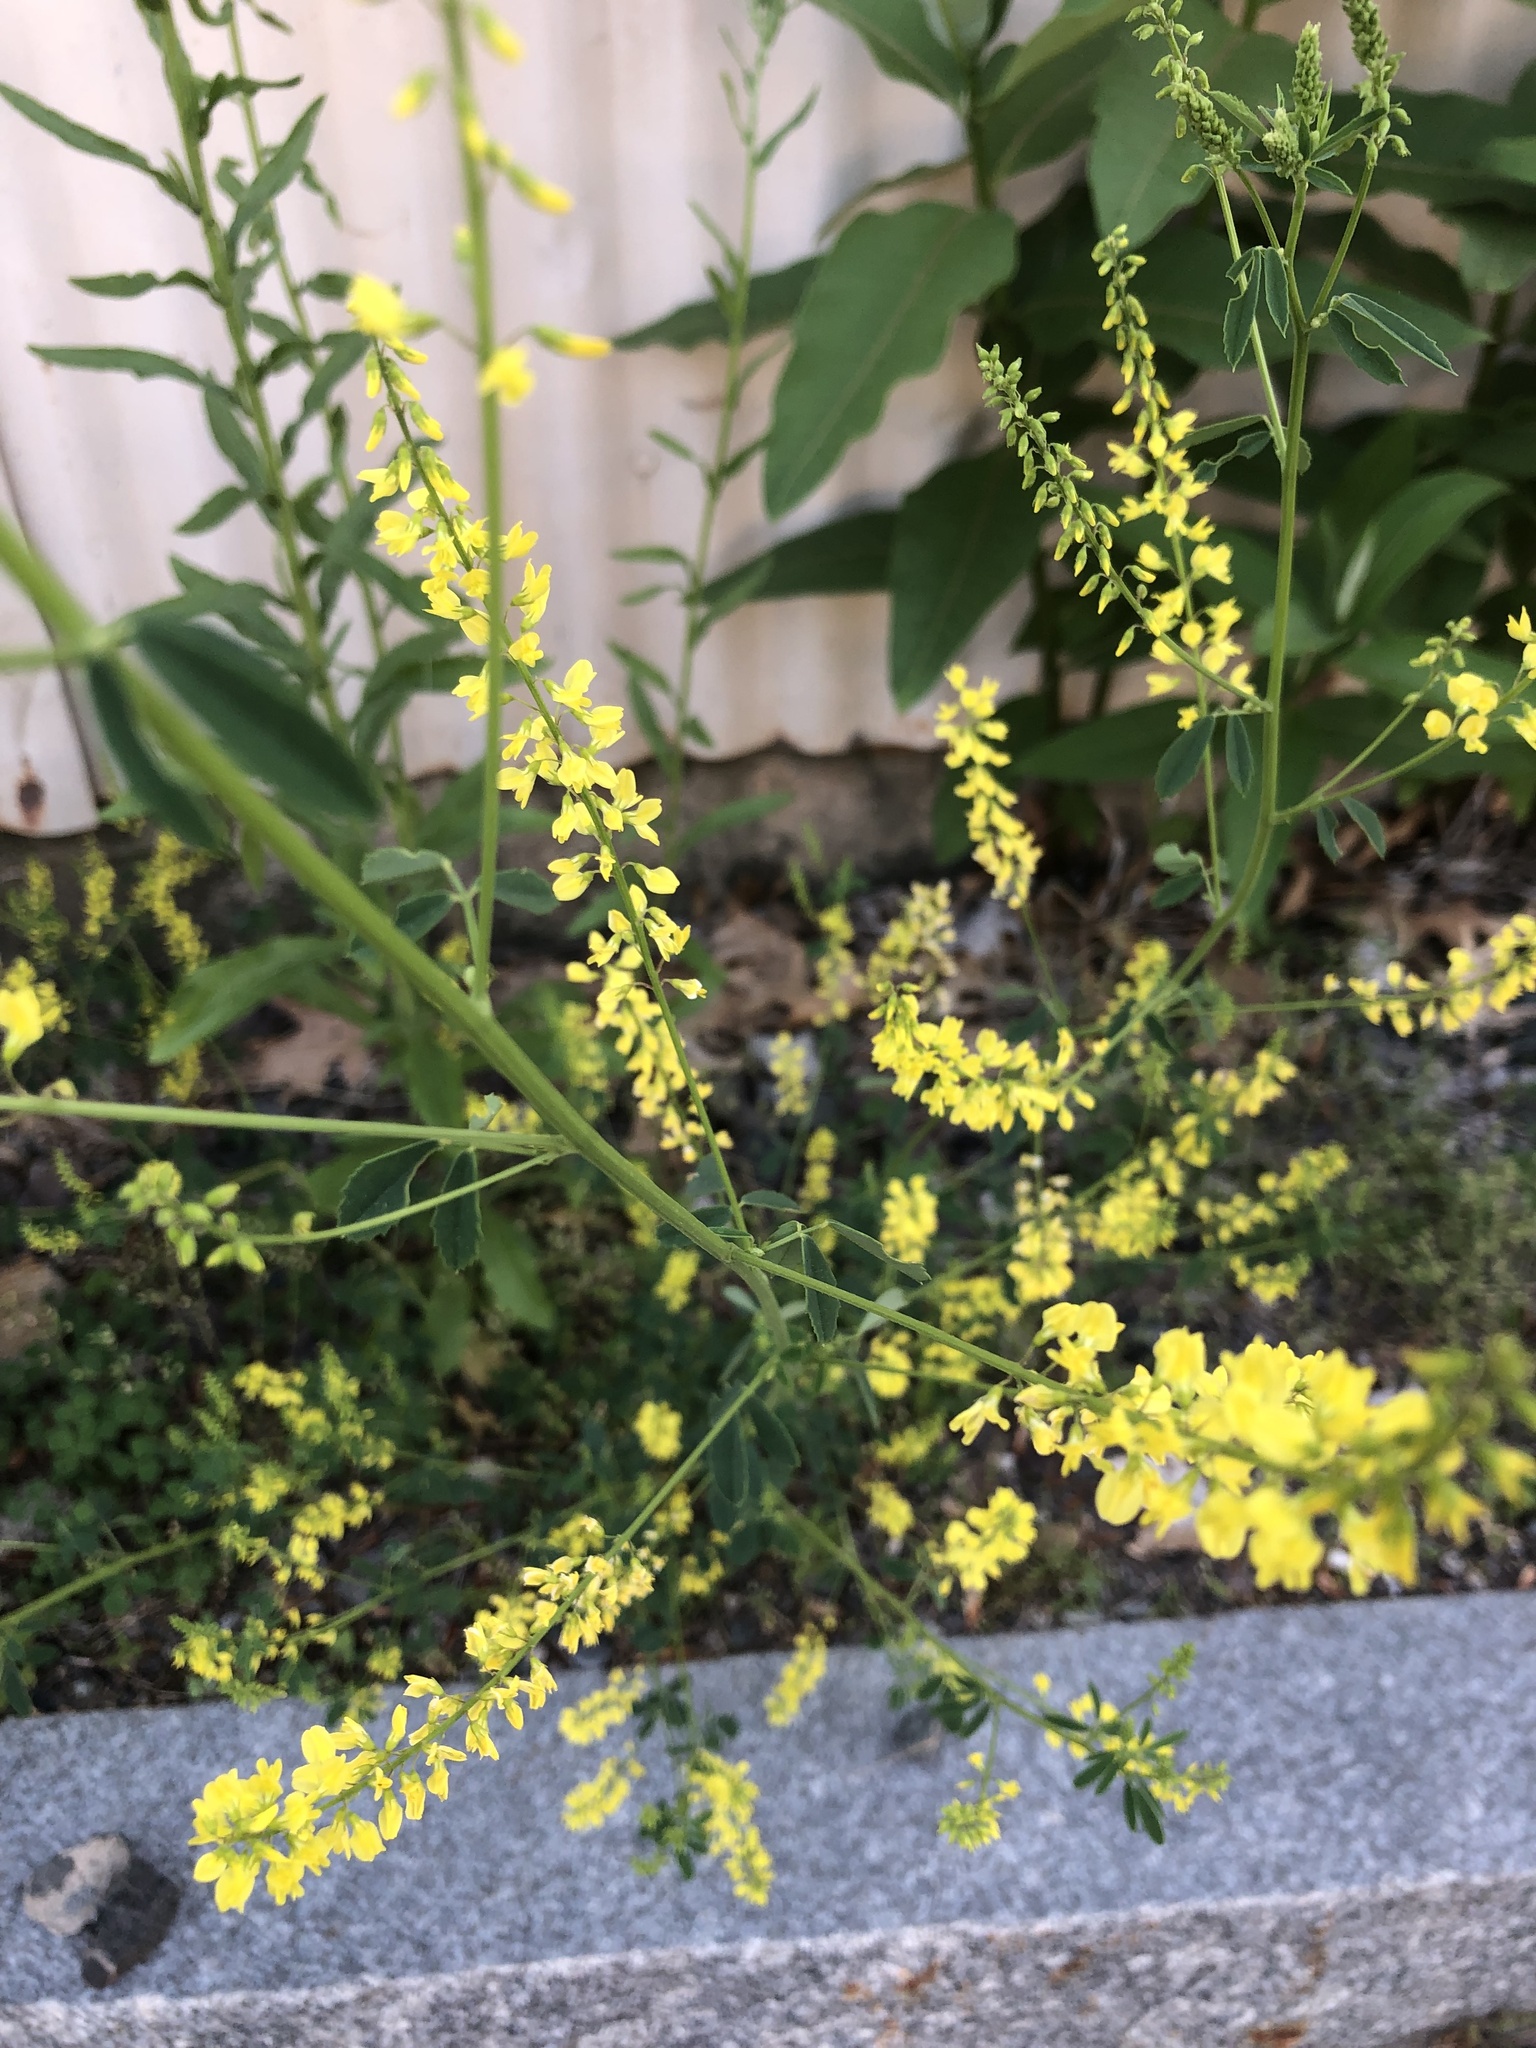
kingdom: Plantae
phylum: Tracheophyta
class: Magnoliopsida
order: Fabales
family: Fabaceae
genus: Melilotus
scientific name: Melilotus officinalis
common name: Sweetclover
